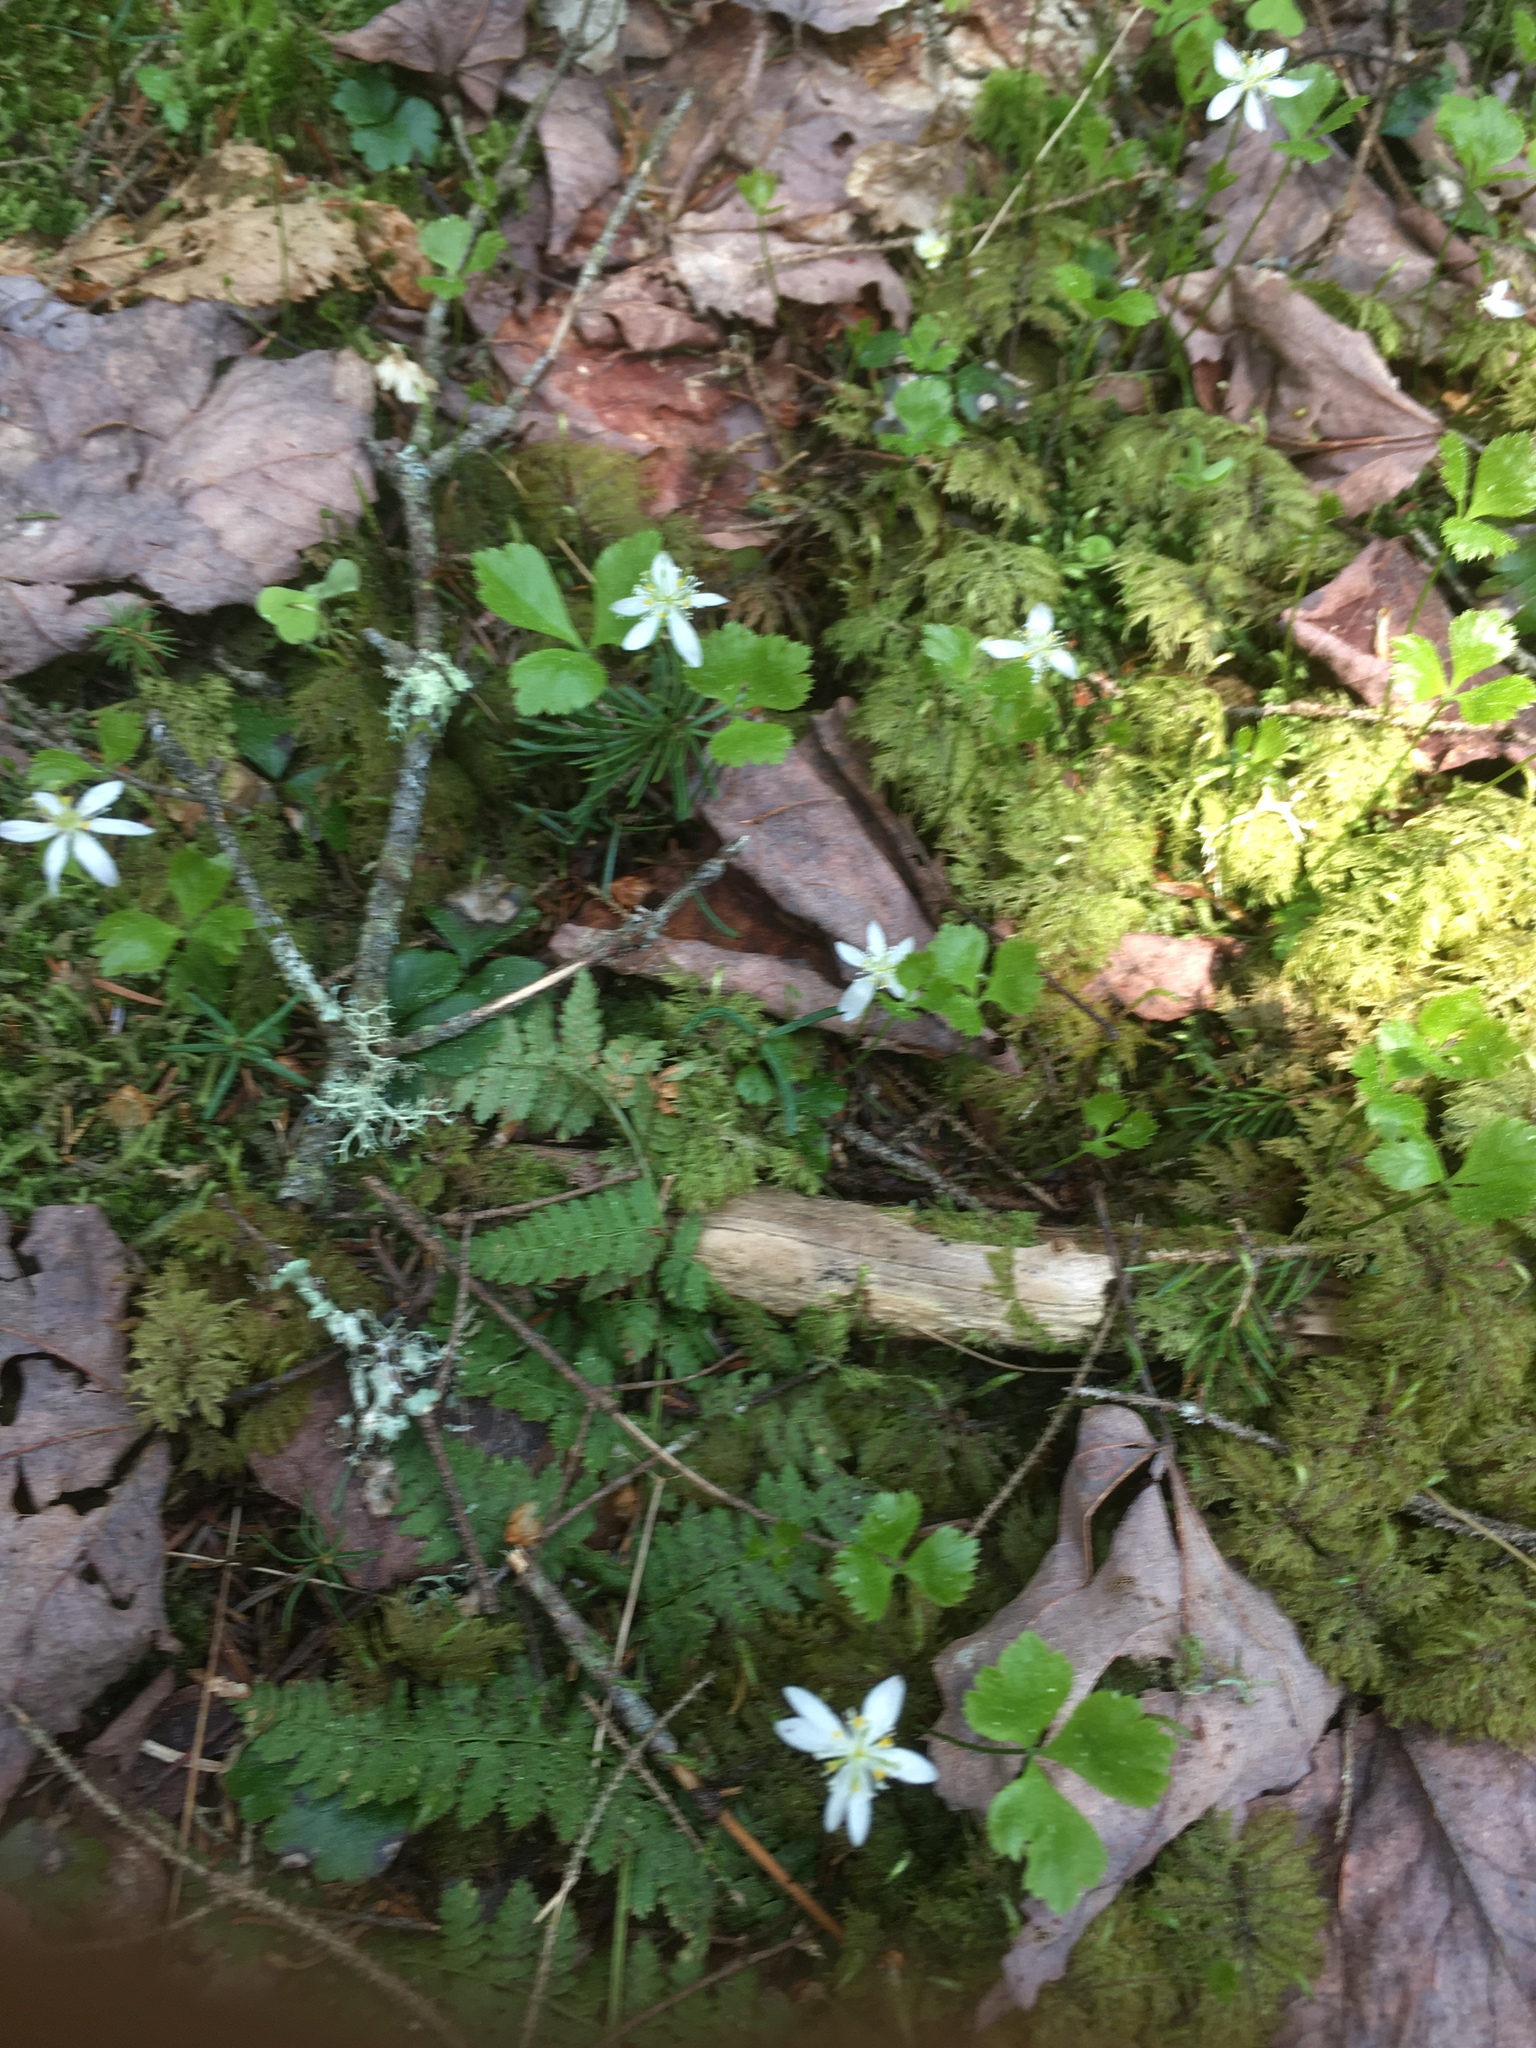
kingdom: Plantae
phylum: Tracheophyta
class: Magnoliopsida
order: Ranunculales
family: Ranunculaceae
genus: Coptis
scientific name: Coptis trifolia
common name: Canker-root
